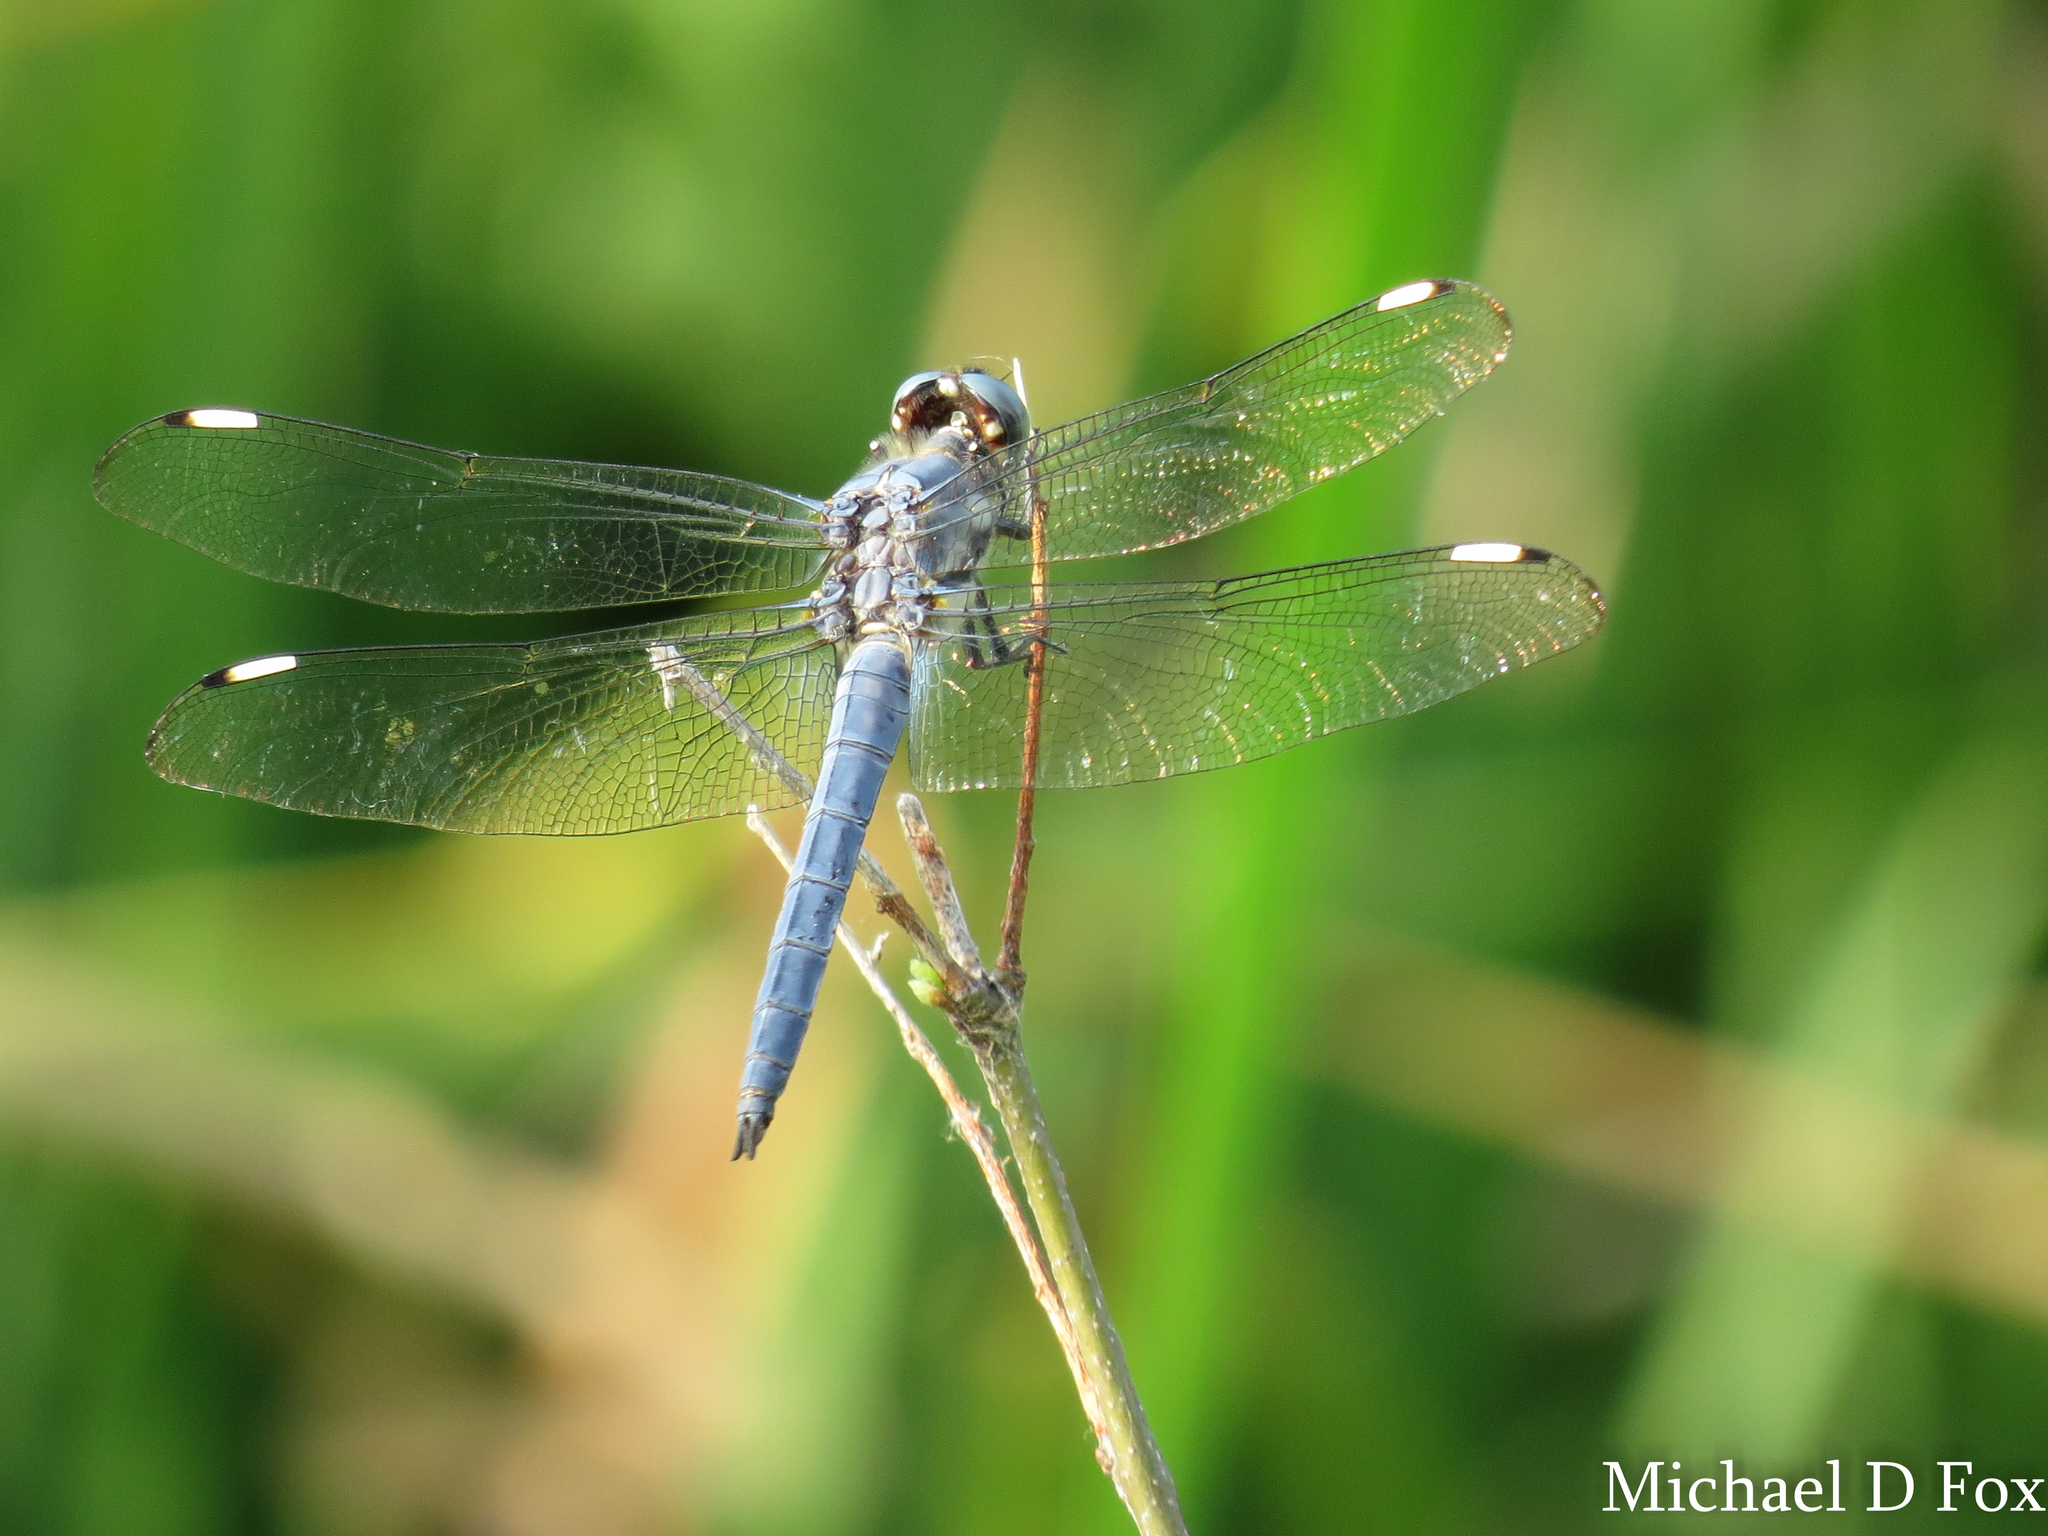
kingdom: Animalia
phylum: Arthropoda
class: Insecta
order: Odonata
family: Libellulidae
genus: Libellula
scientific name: Libellula comanche
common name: Comanche skimmer
